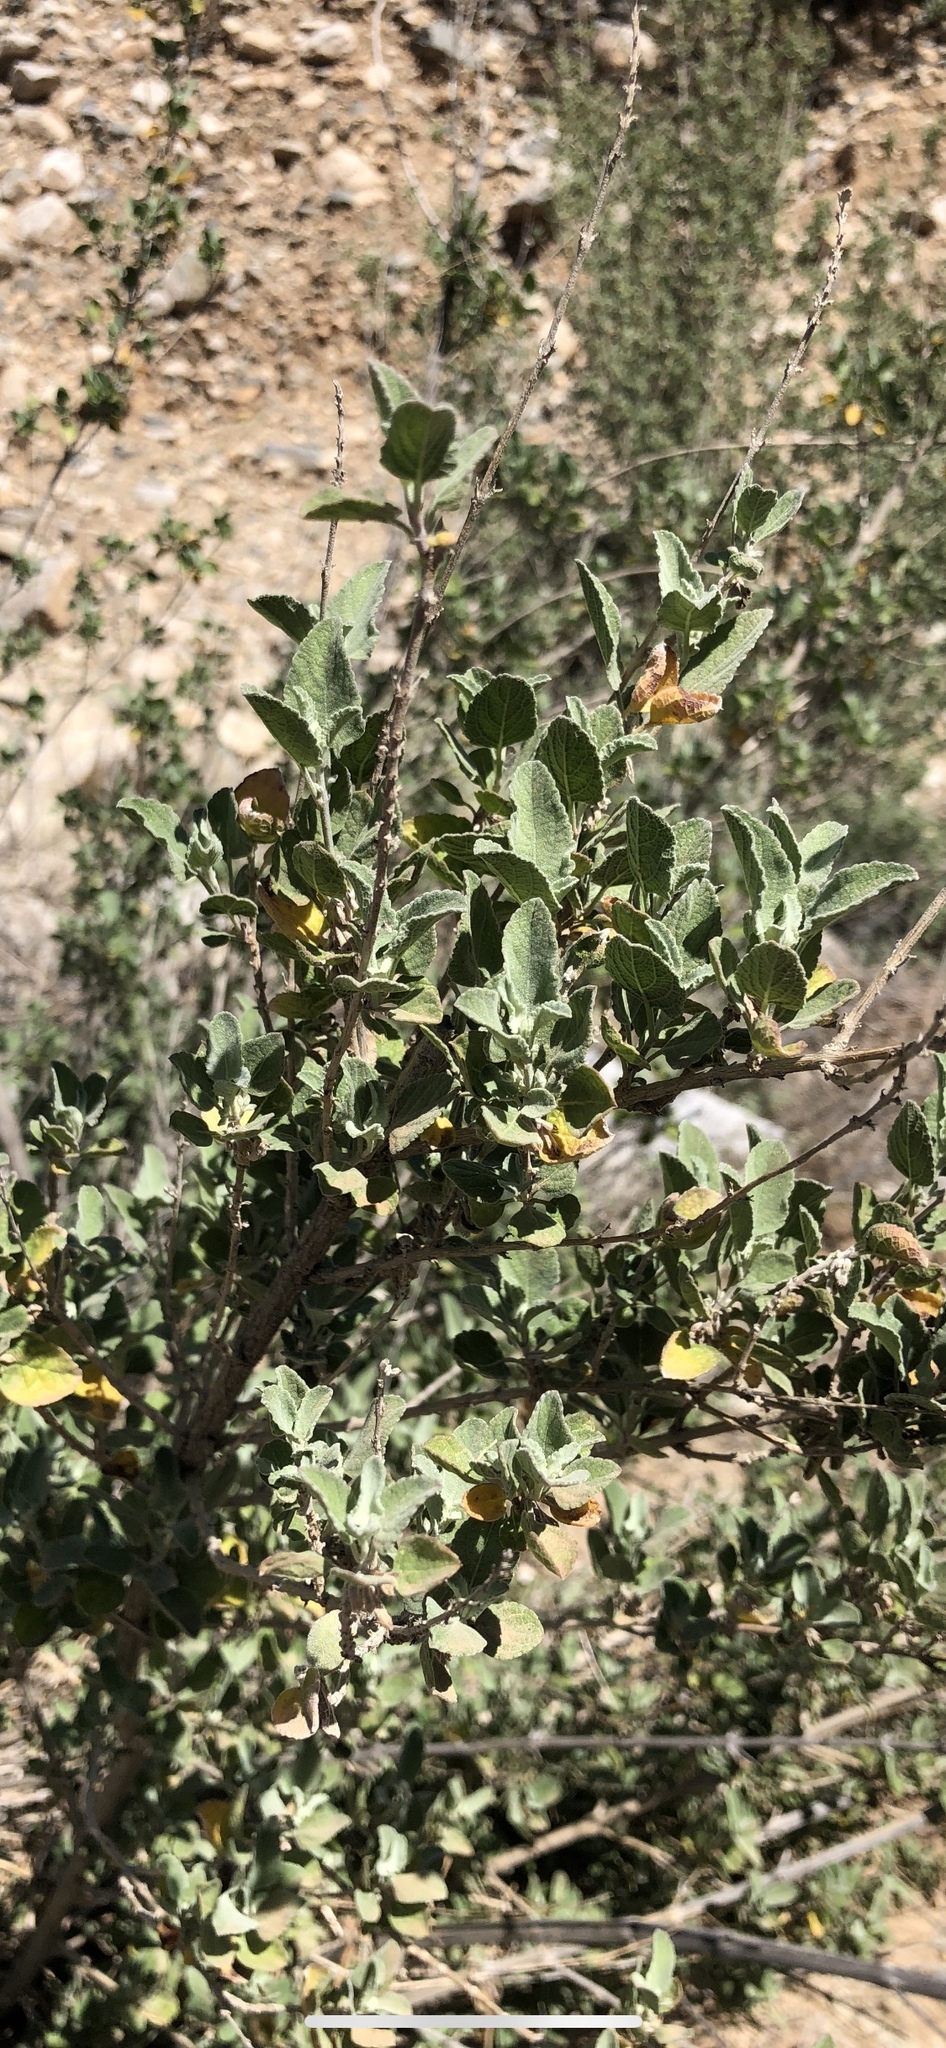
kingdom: Plantae
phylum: Tracheophyta
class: Magnoliopsida
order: Lamiales
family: Lamiaceae
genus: Condea
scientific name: Condea emoryi
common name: Chia
